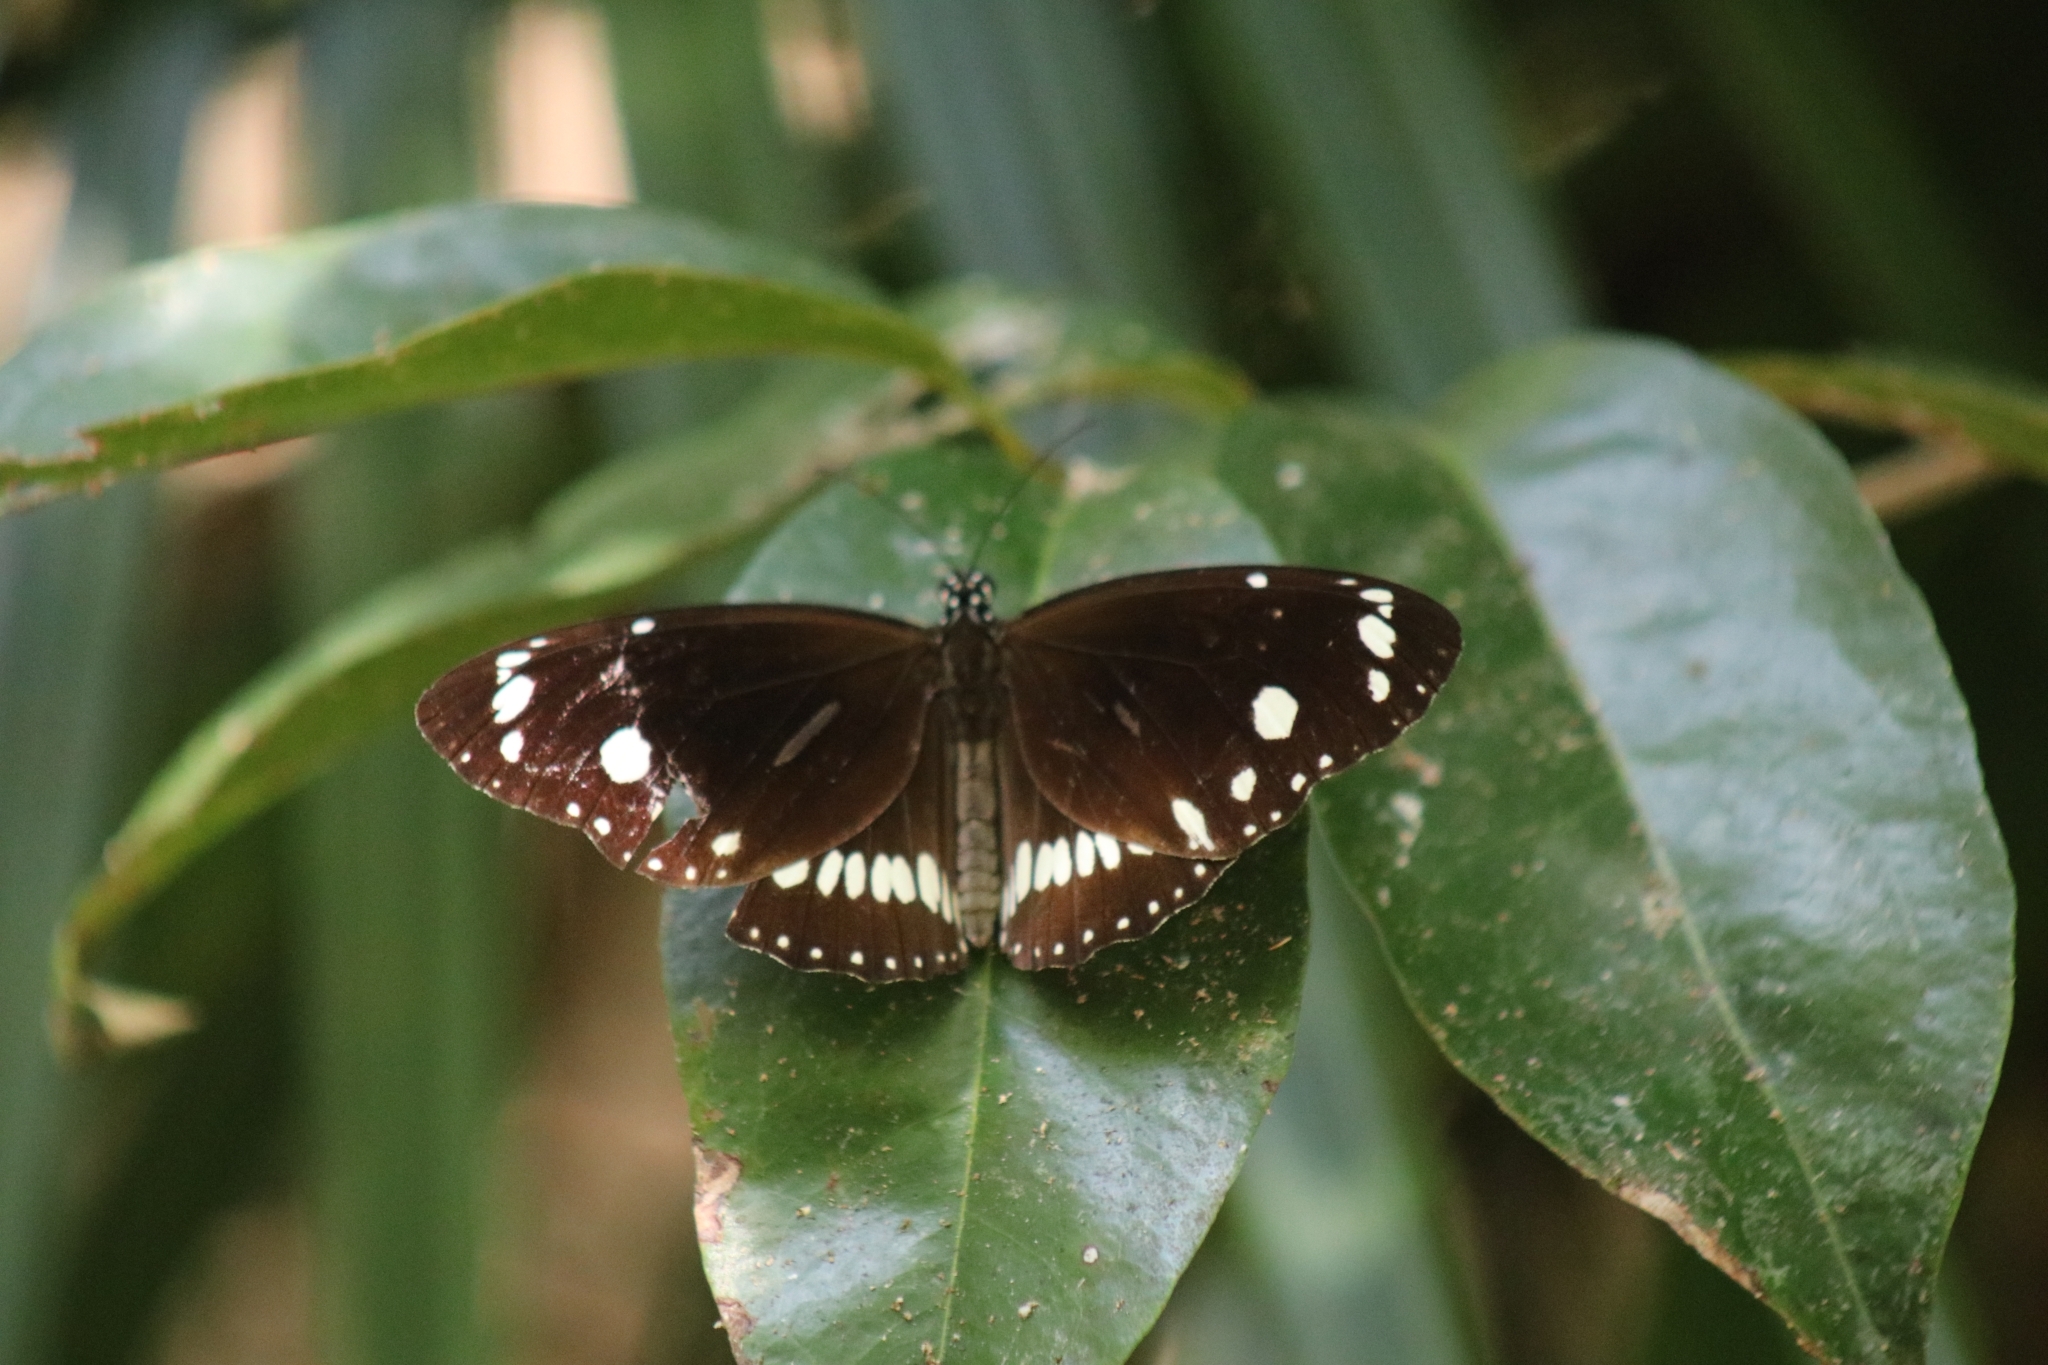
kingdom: Animalia
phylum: Arthropoda
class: Insecta
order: Lepidoptera
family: Nymphalidae
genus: Euploea
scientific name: Euploea core
